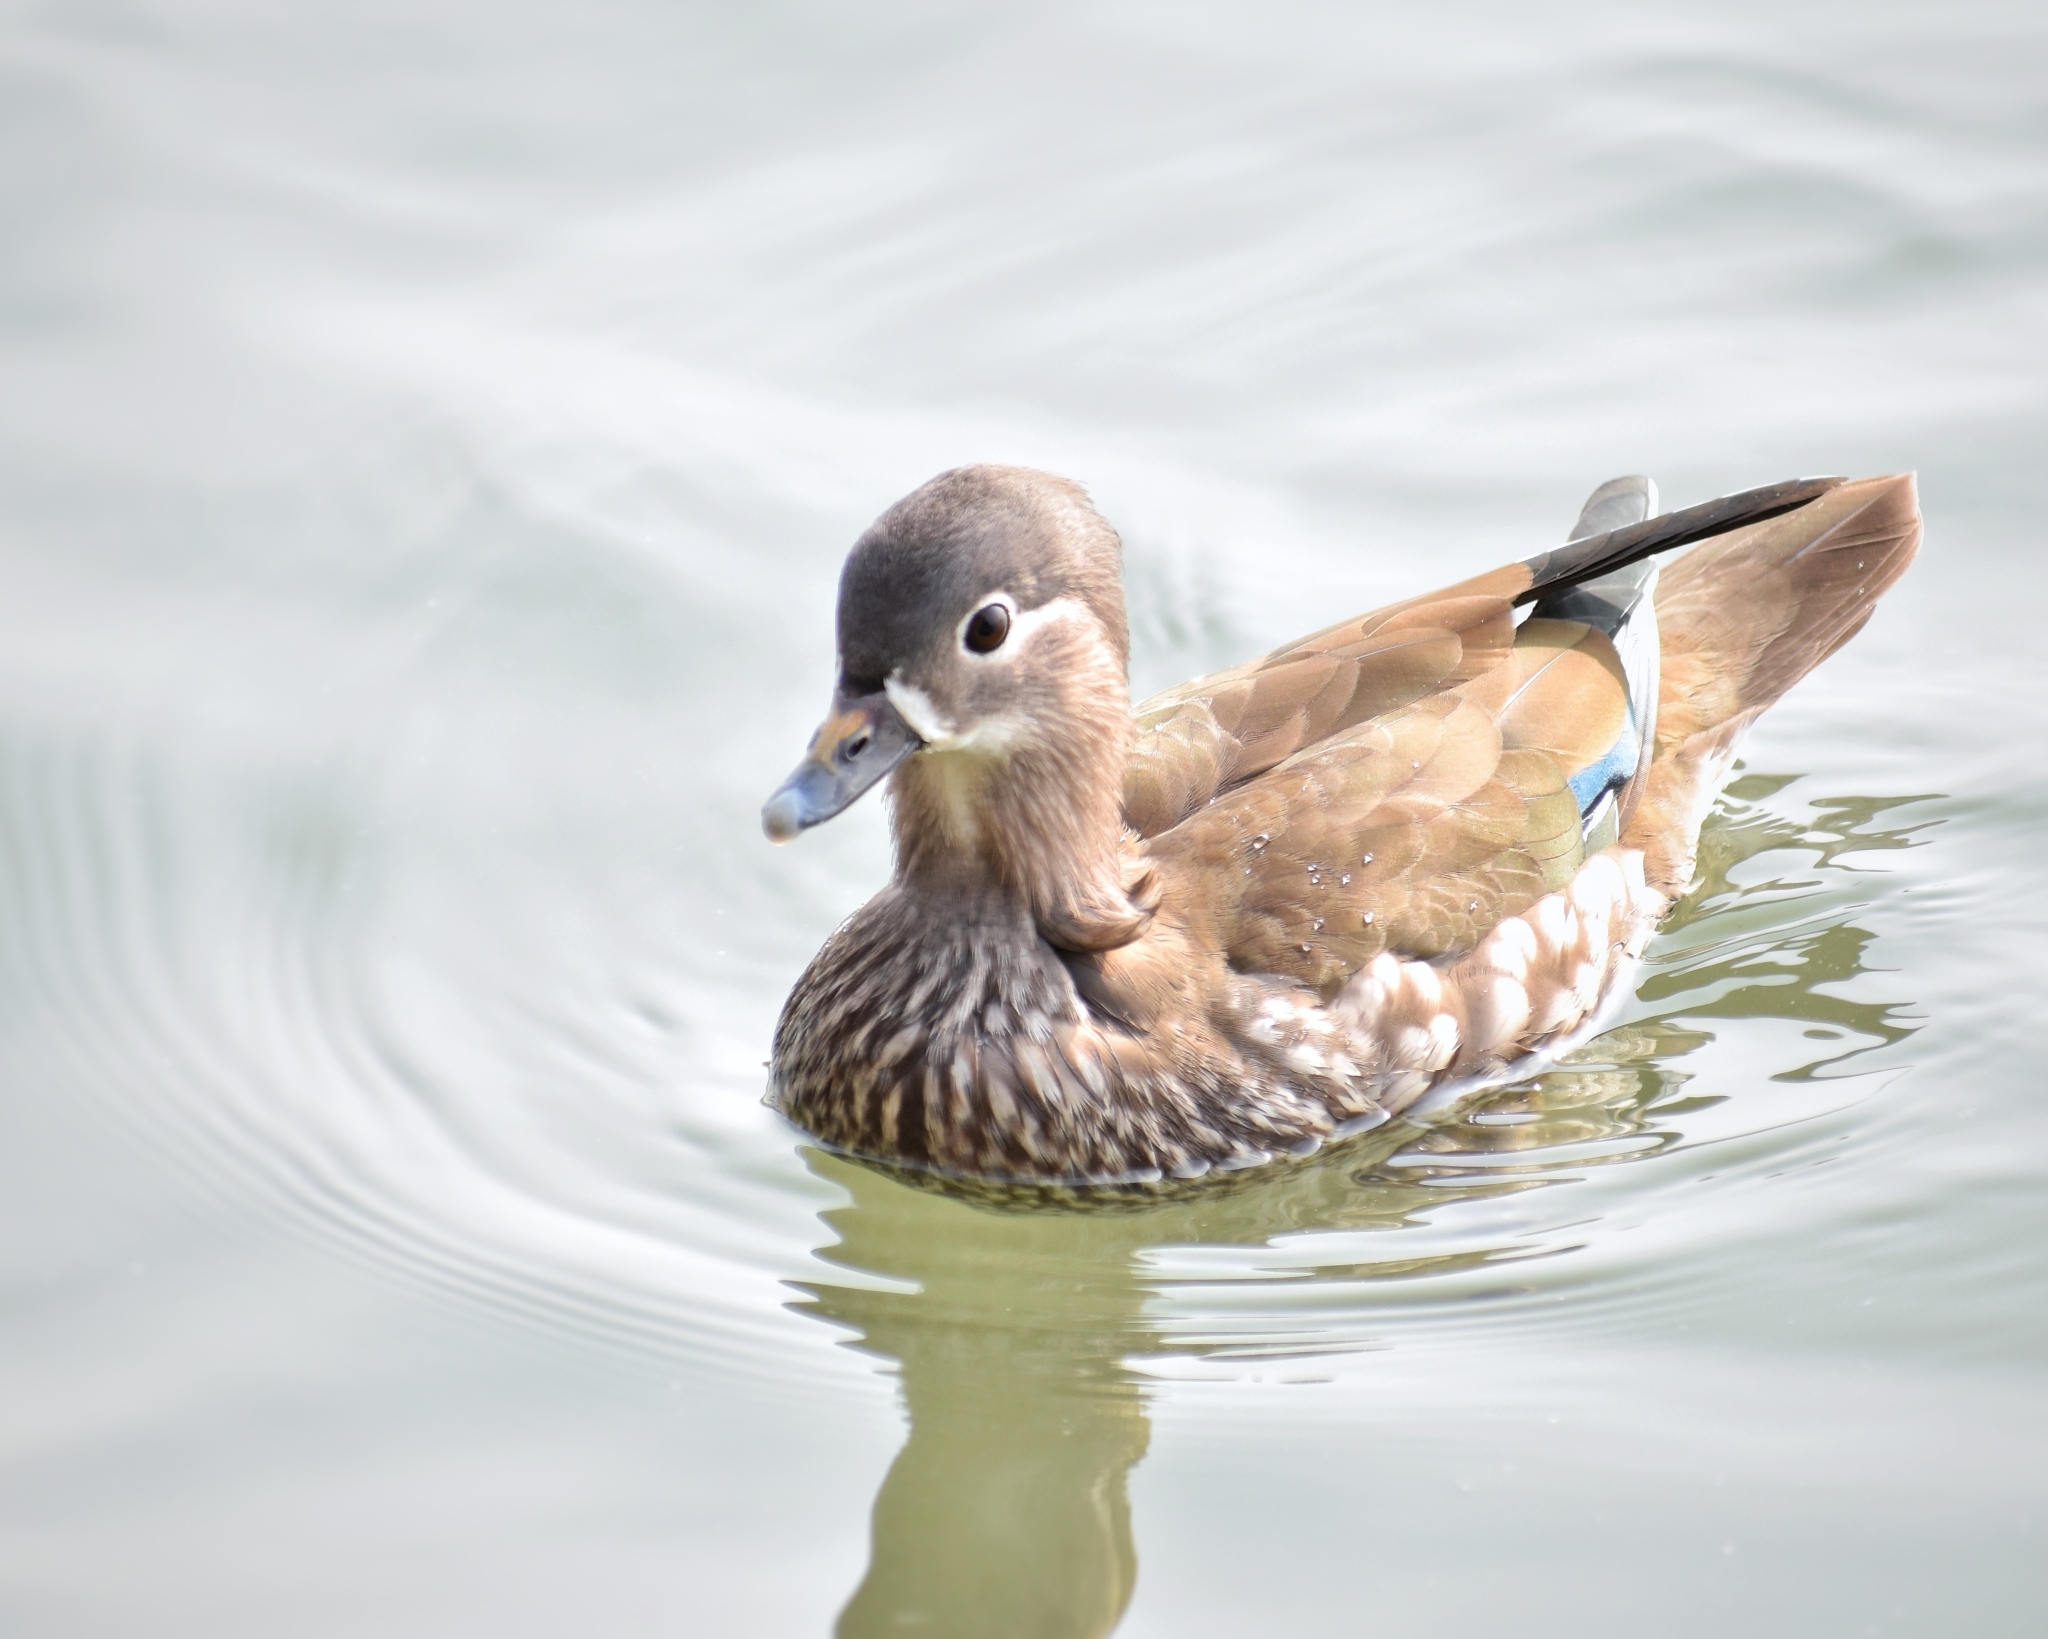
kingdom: Animalia
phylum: Chordata
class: Aves
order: Anseriformes
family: Anatidae
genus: Aix
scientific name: Aix galericulata
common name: Mandarin duck
